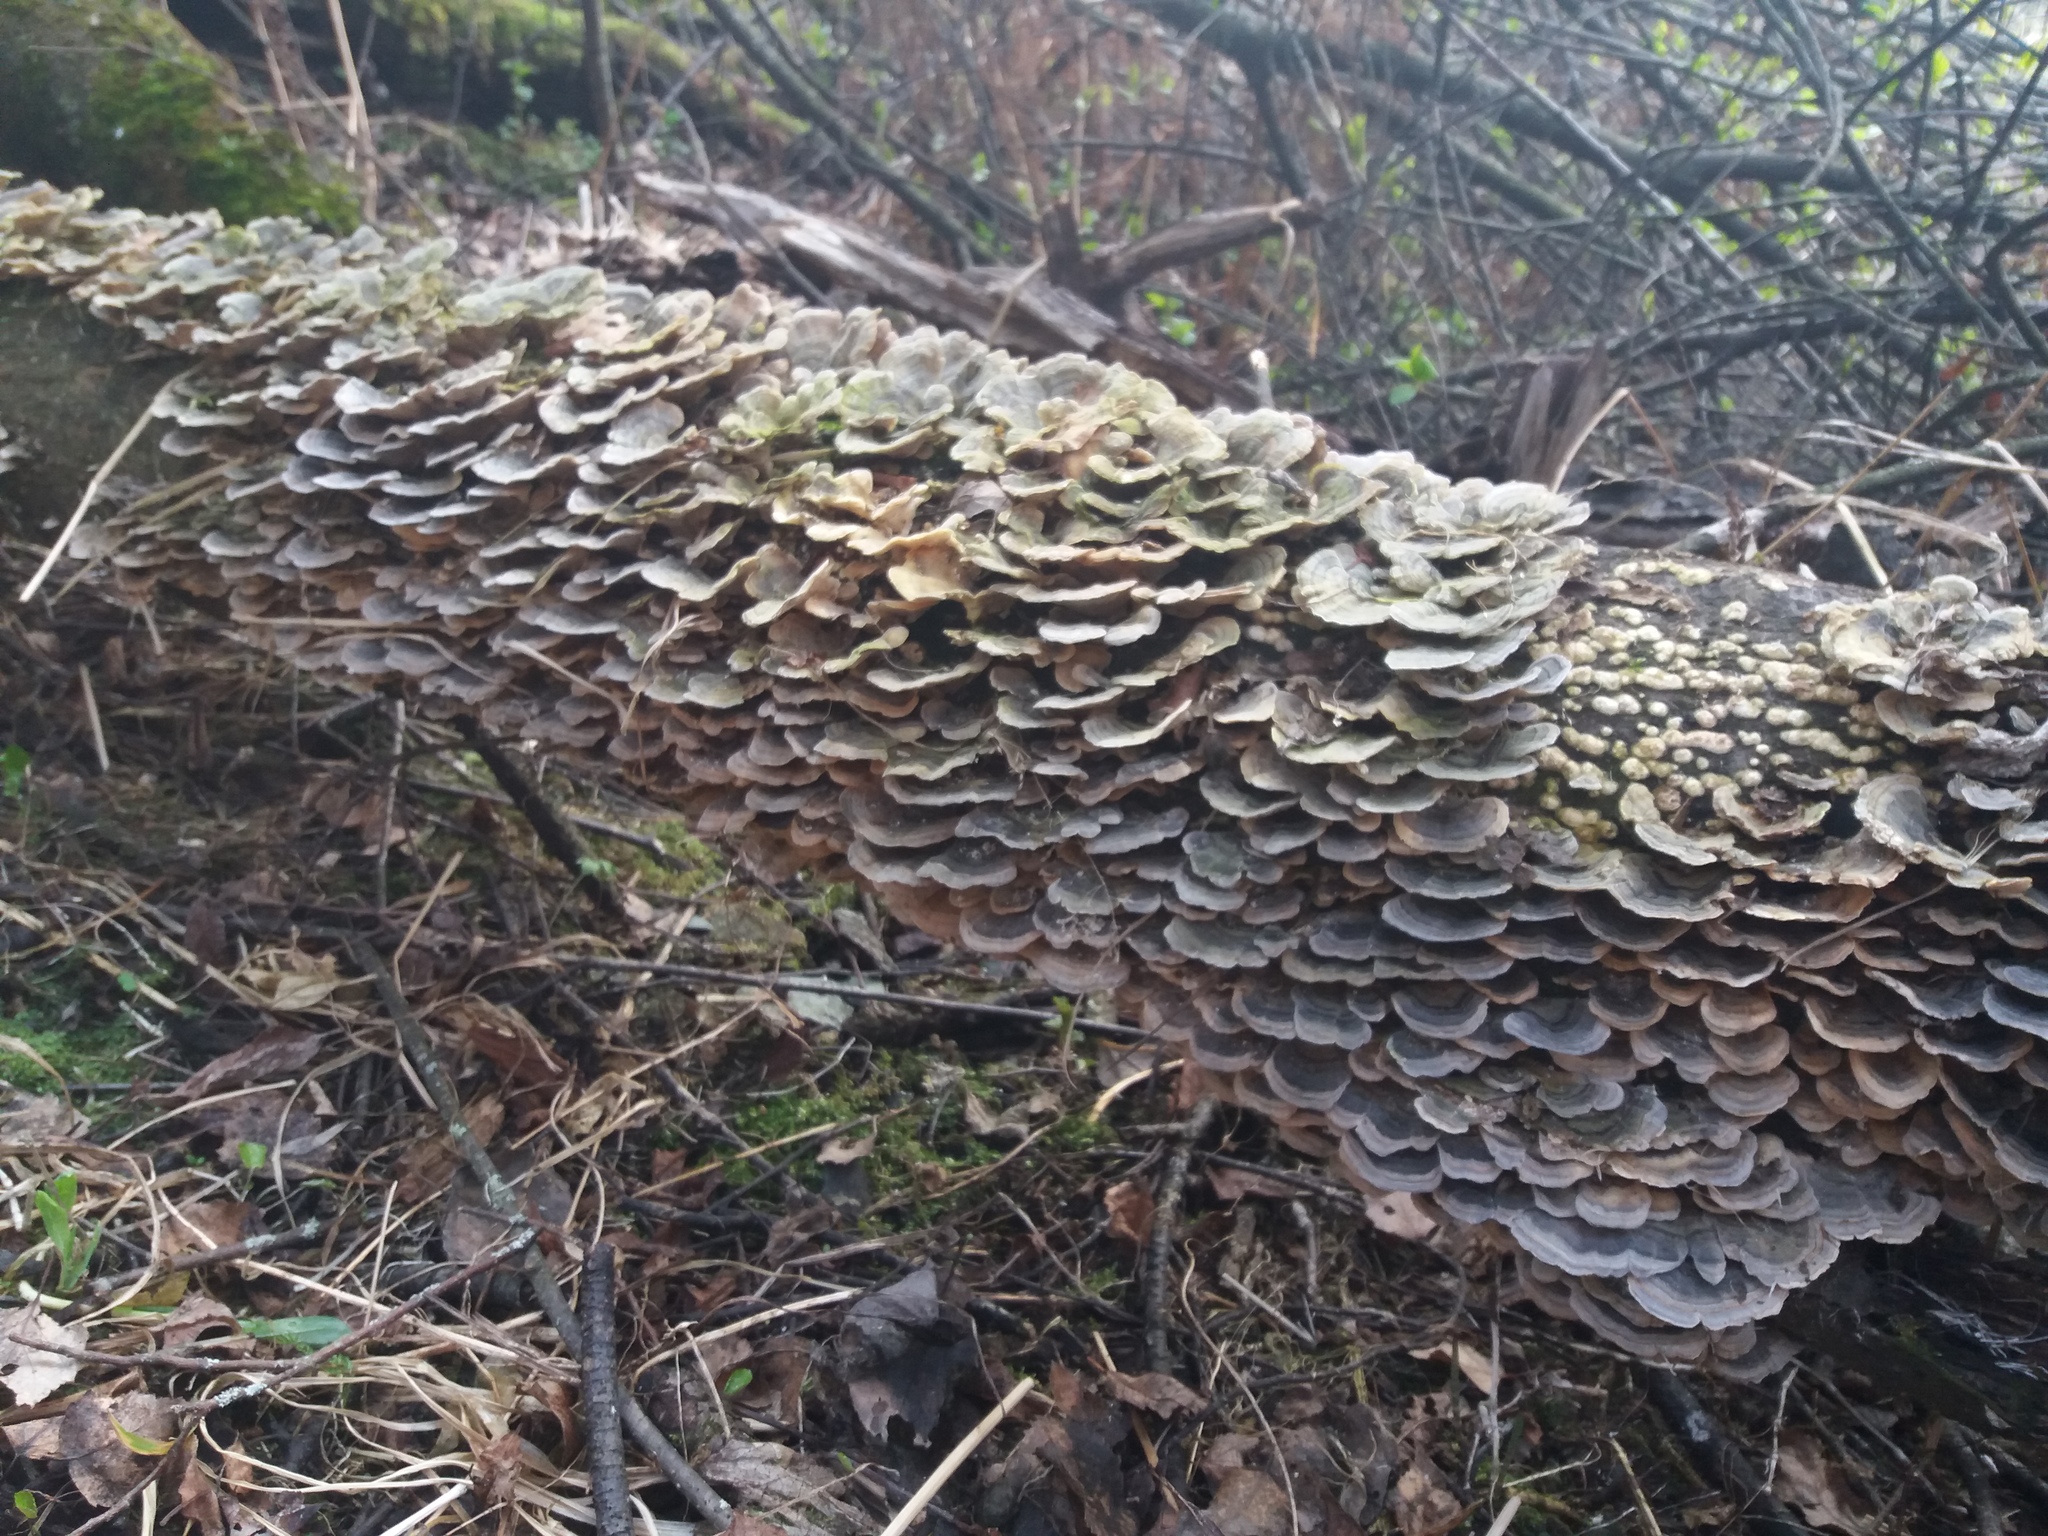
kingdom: Fungi
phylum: Basidiomycota
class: Agaricomycetes
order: Polyporales
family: Polyporaceae
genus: Trametes
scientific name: Trametes versicolor
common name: Turkeytail
